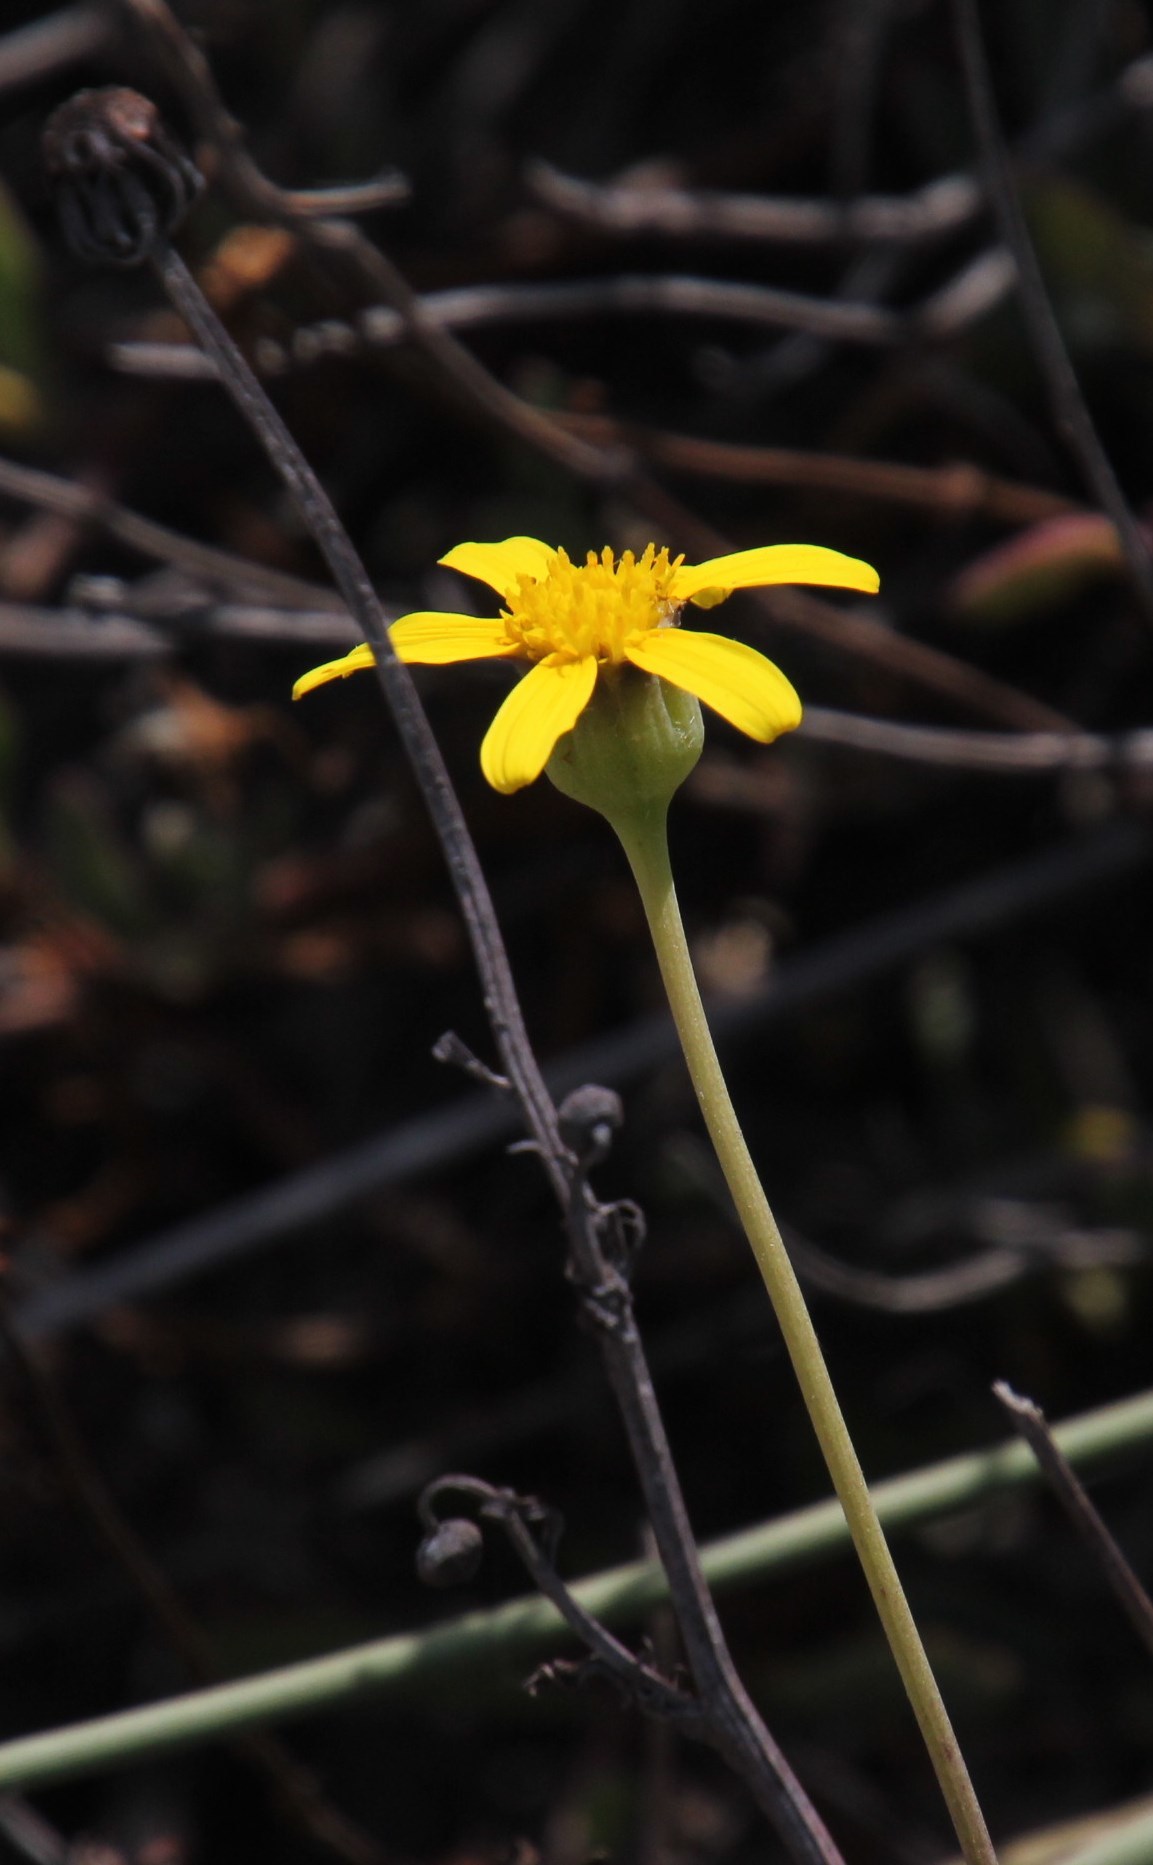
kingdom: Plantae
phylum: Tracheophyta
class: Magnoliopsida
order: Asterales
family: Asteraceae
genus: Othonna
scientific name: Othonna coronopifolia
